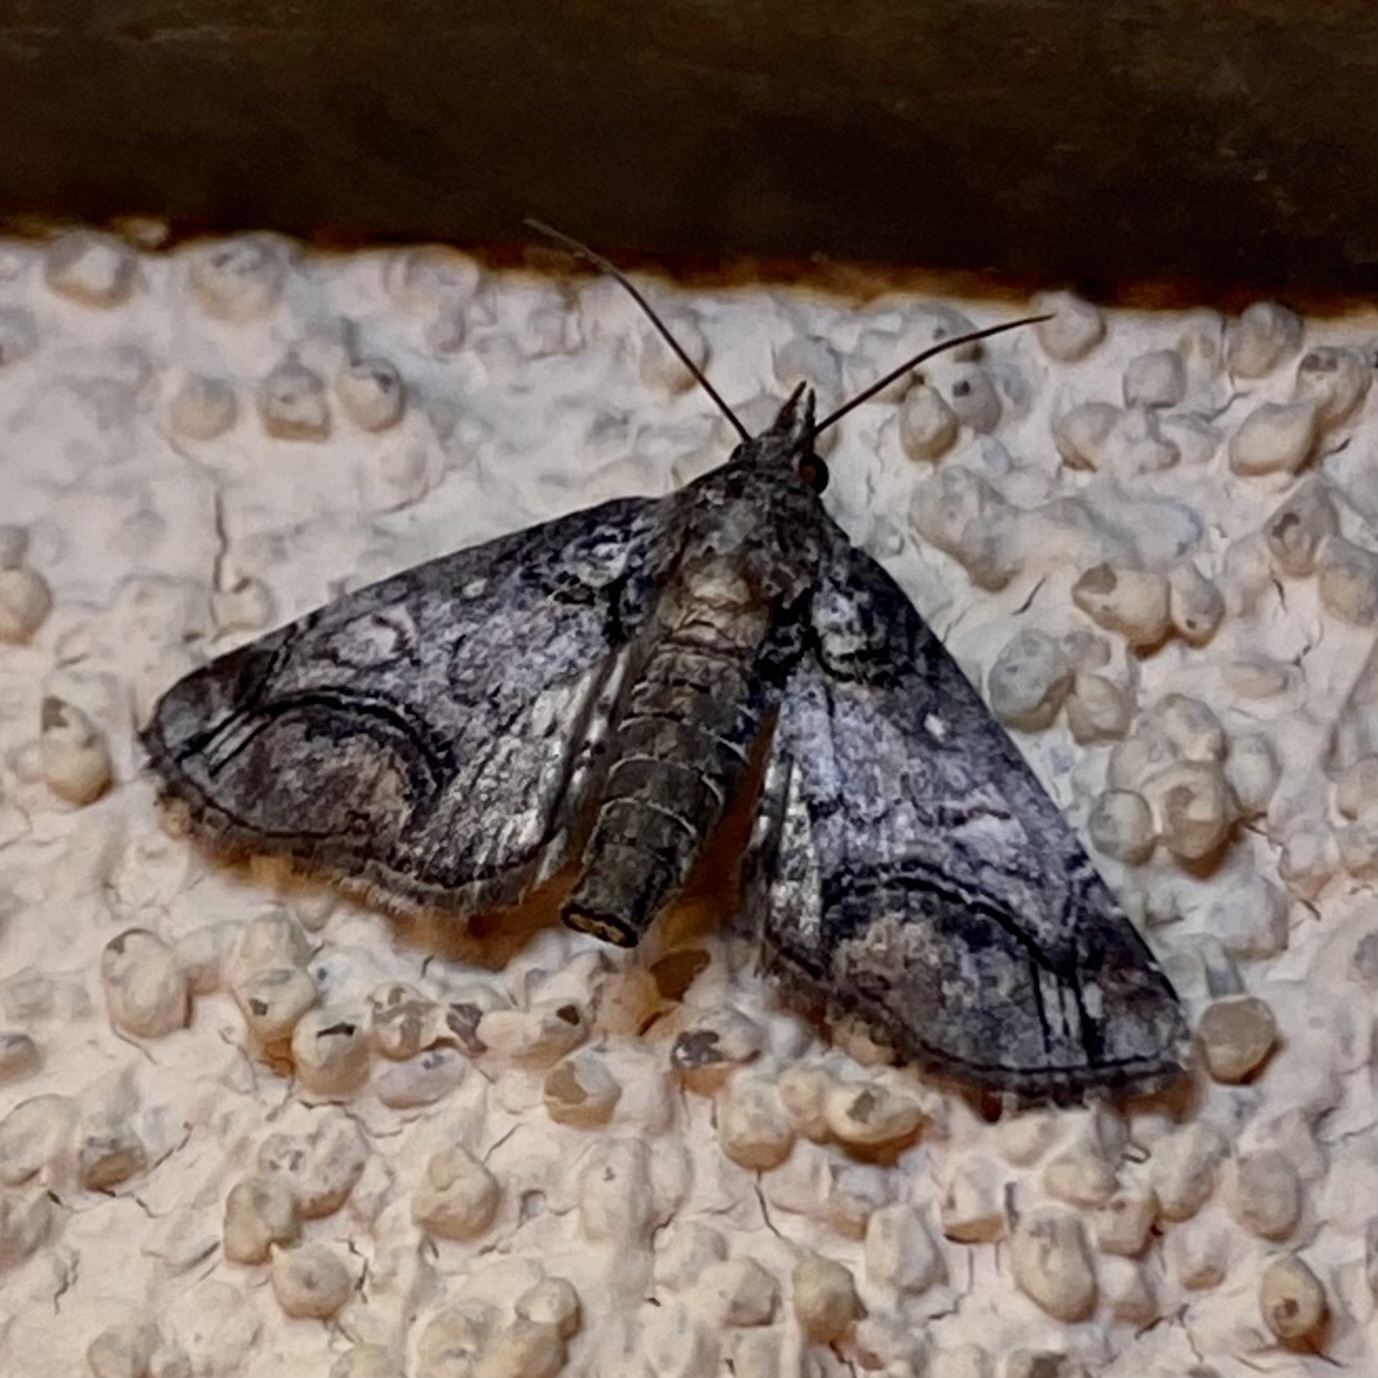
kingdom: Animalia
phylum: Arthropoda
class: Insecta
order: Lepidoptera
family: Euteliidae
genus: Paectes
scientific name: Paectes abrostolella
